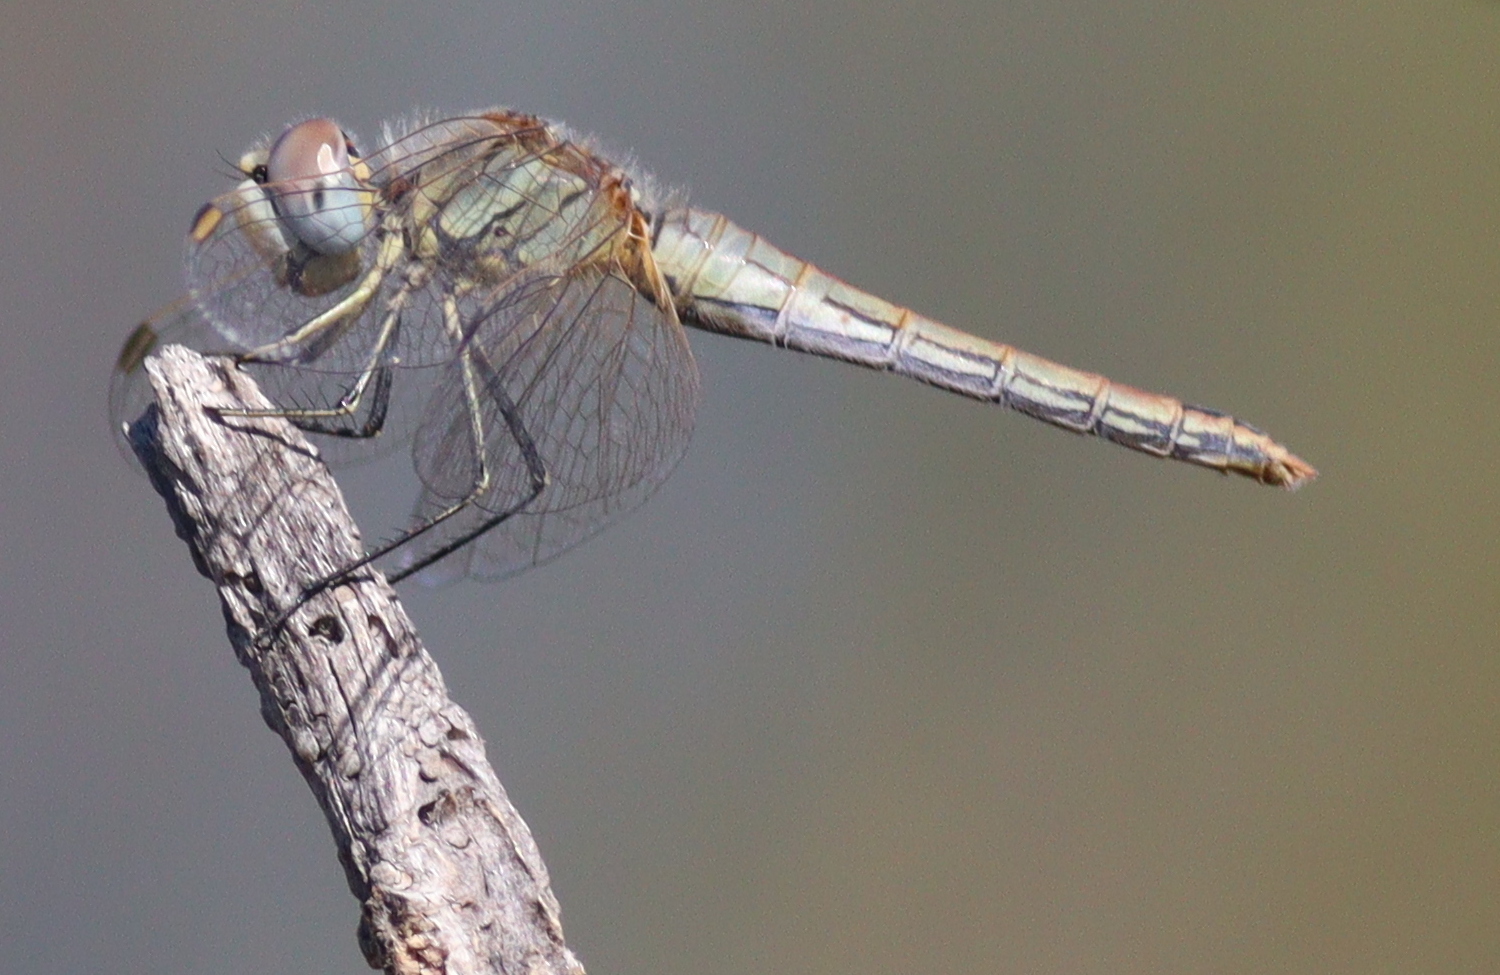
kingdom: Animalia
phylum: Arthropoda
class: Insecta
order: Odonata
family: Libellulidae
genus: Sympetrum
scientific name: Sympetrum fonscolombii
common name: Red-veined darter
